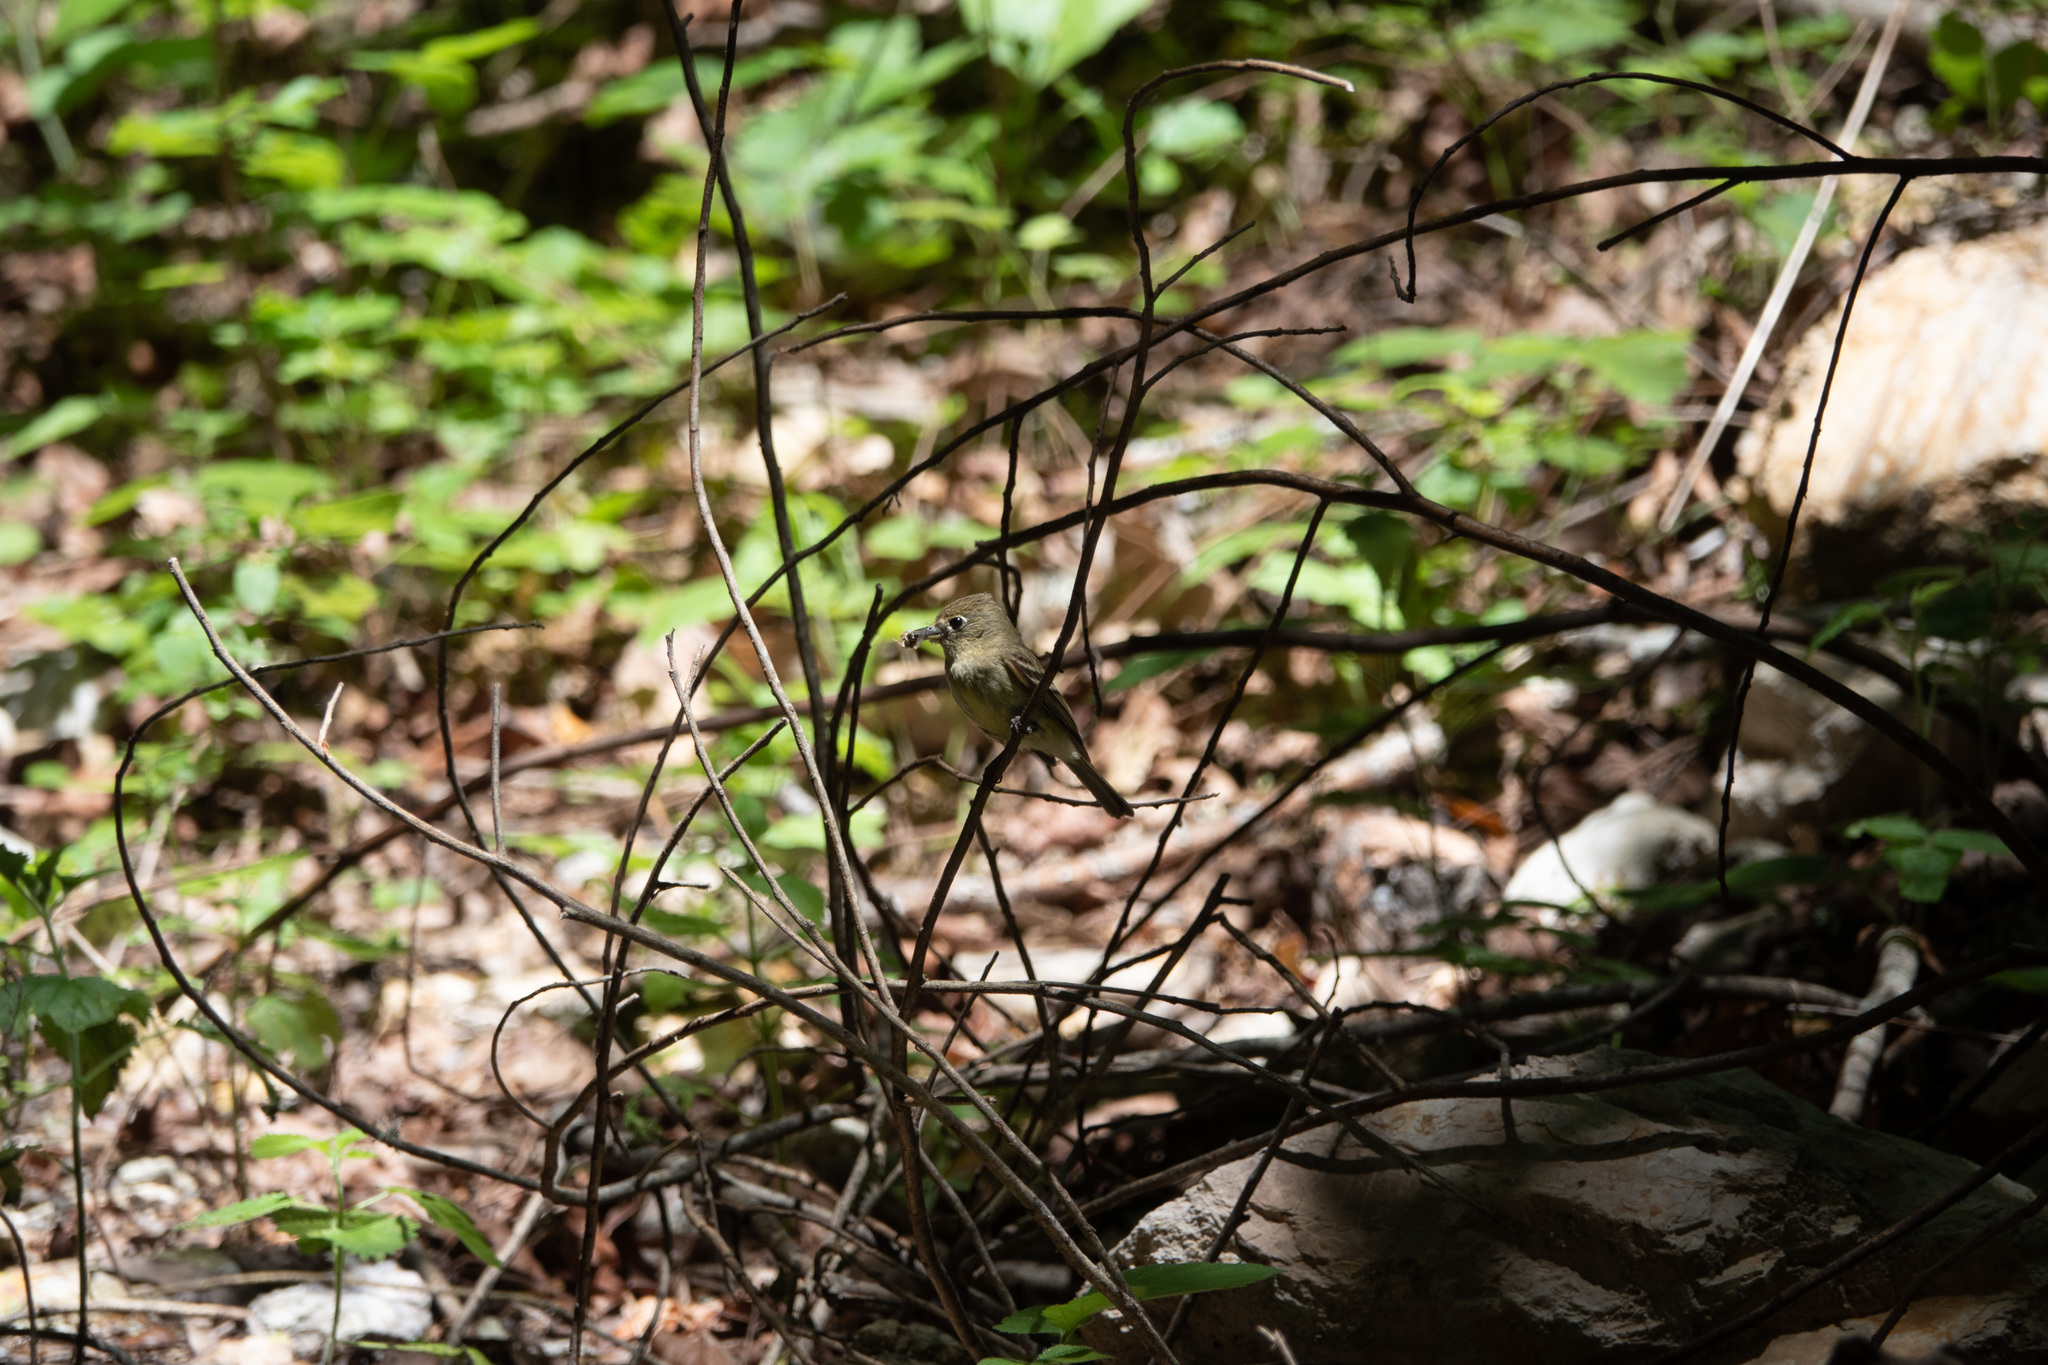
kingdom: Animalia
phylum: Chordata
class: Aves
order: Passeriformes
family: Tyrannidae
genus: Empidonax
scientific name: Empidonax difficilis
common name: Pacific-slope flycatcher
